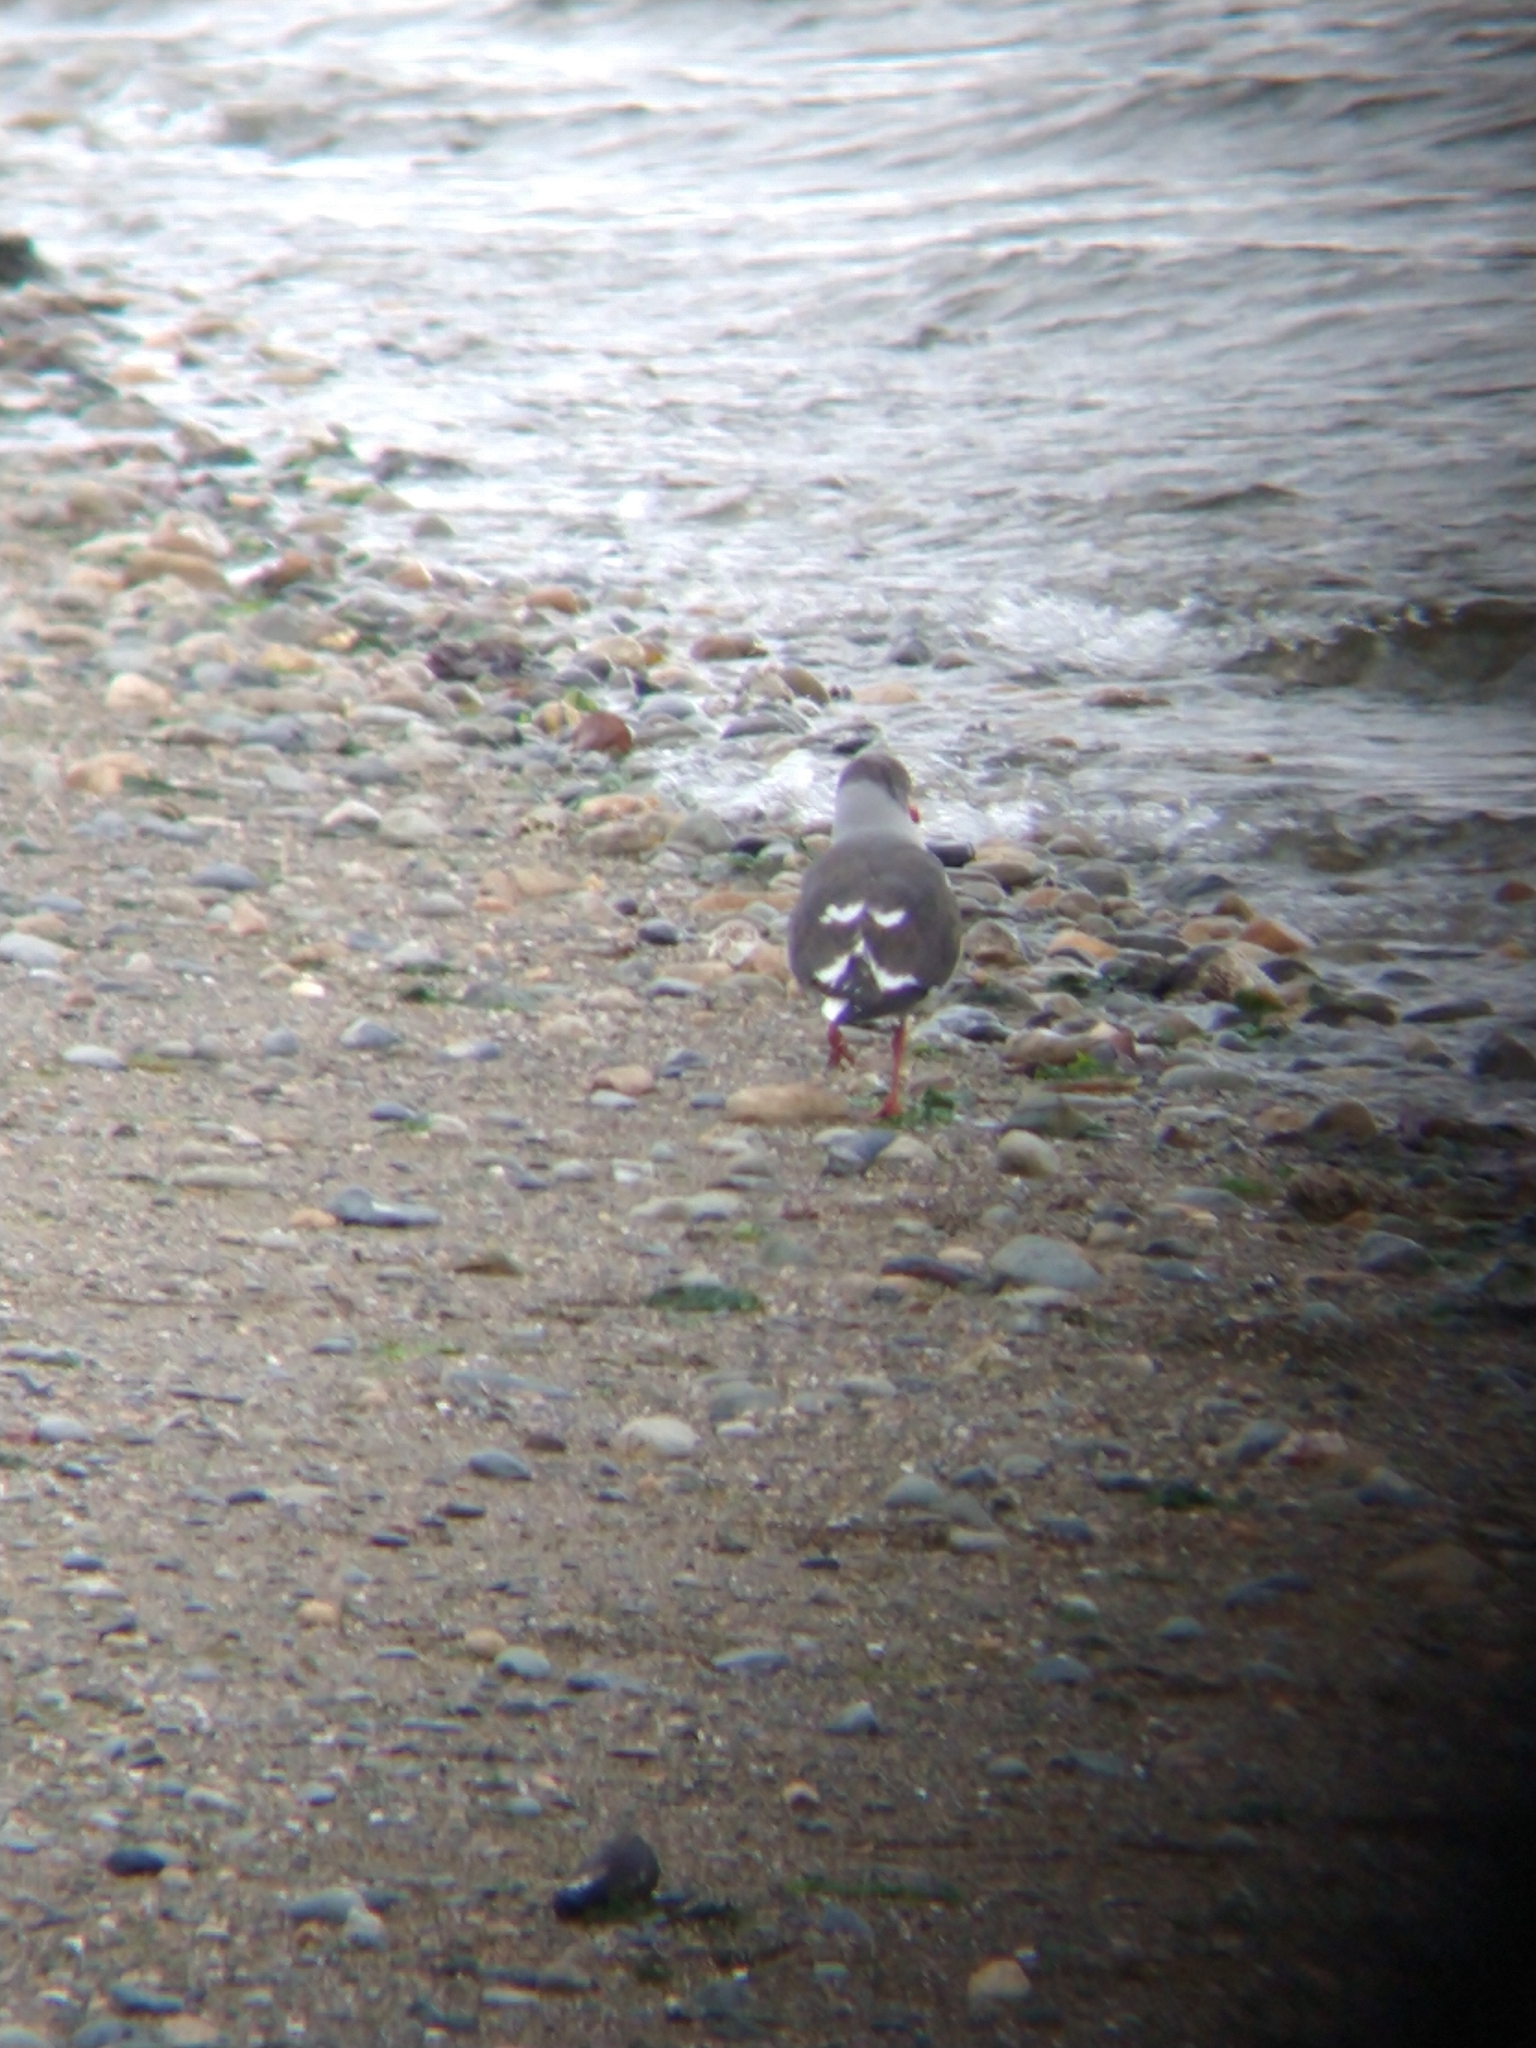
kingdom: Animalia
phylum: Chordata
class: Aves
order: Charadriiformes
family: Laridae
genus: Leucophaeus
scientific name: Leucophaeus scoresbii
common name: Dolphin gull
